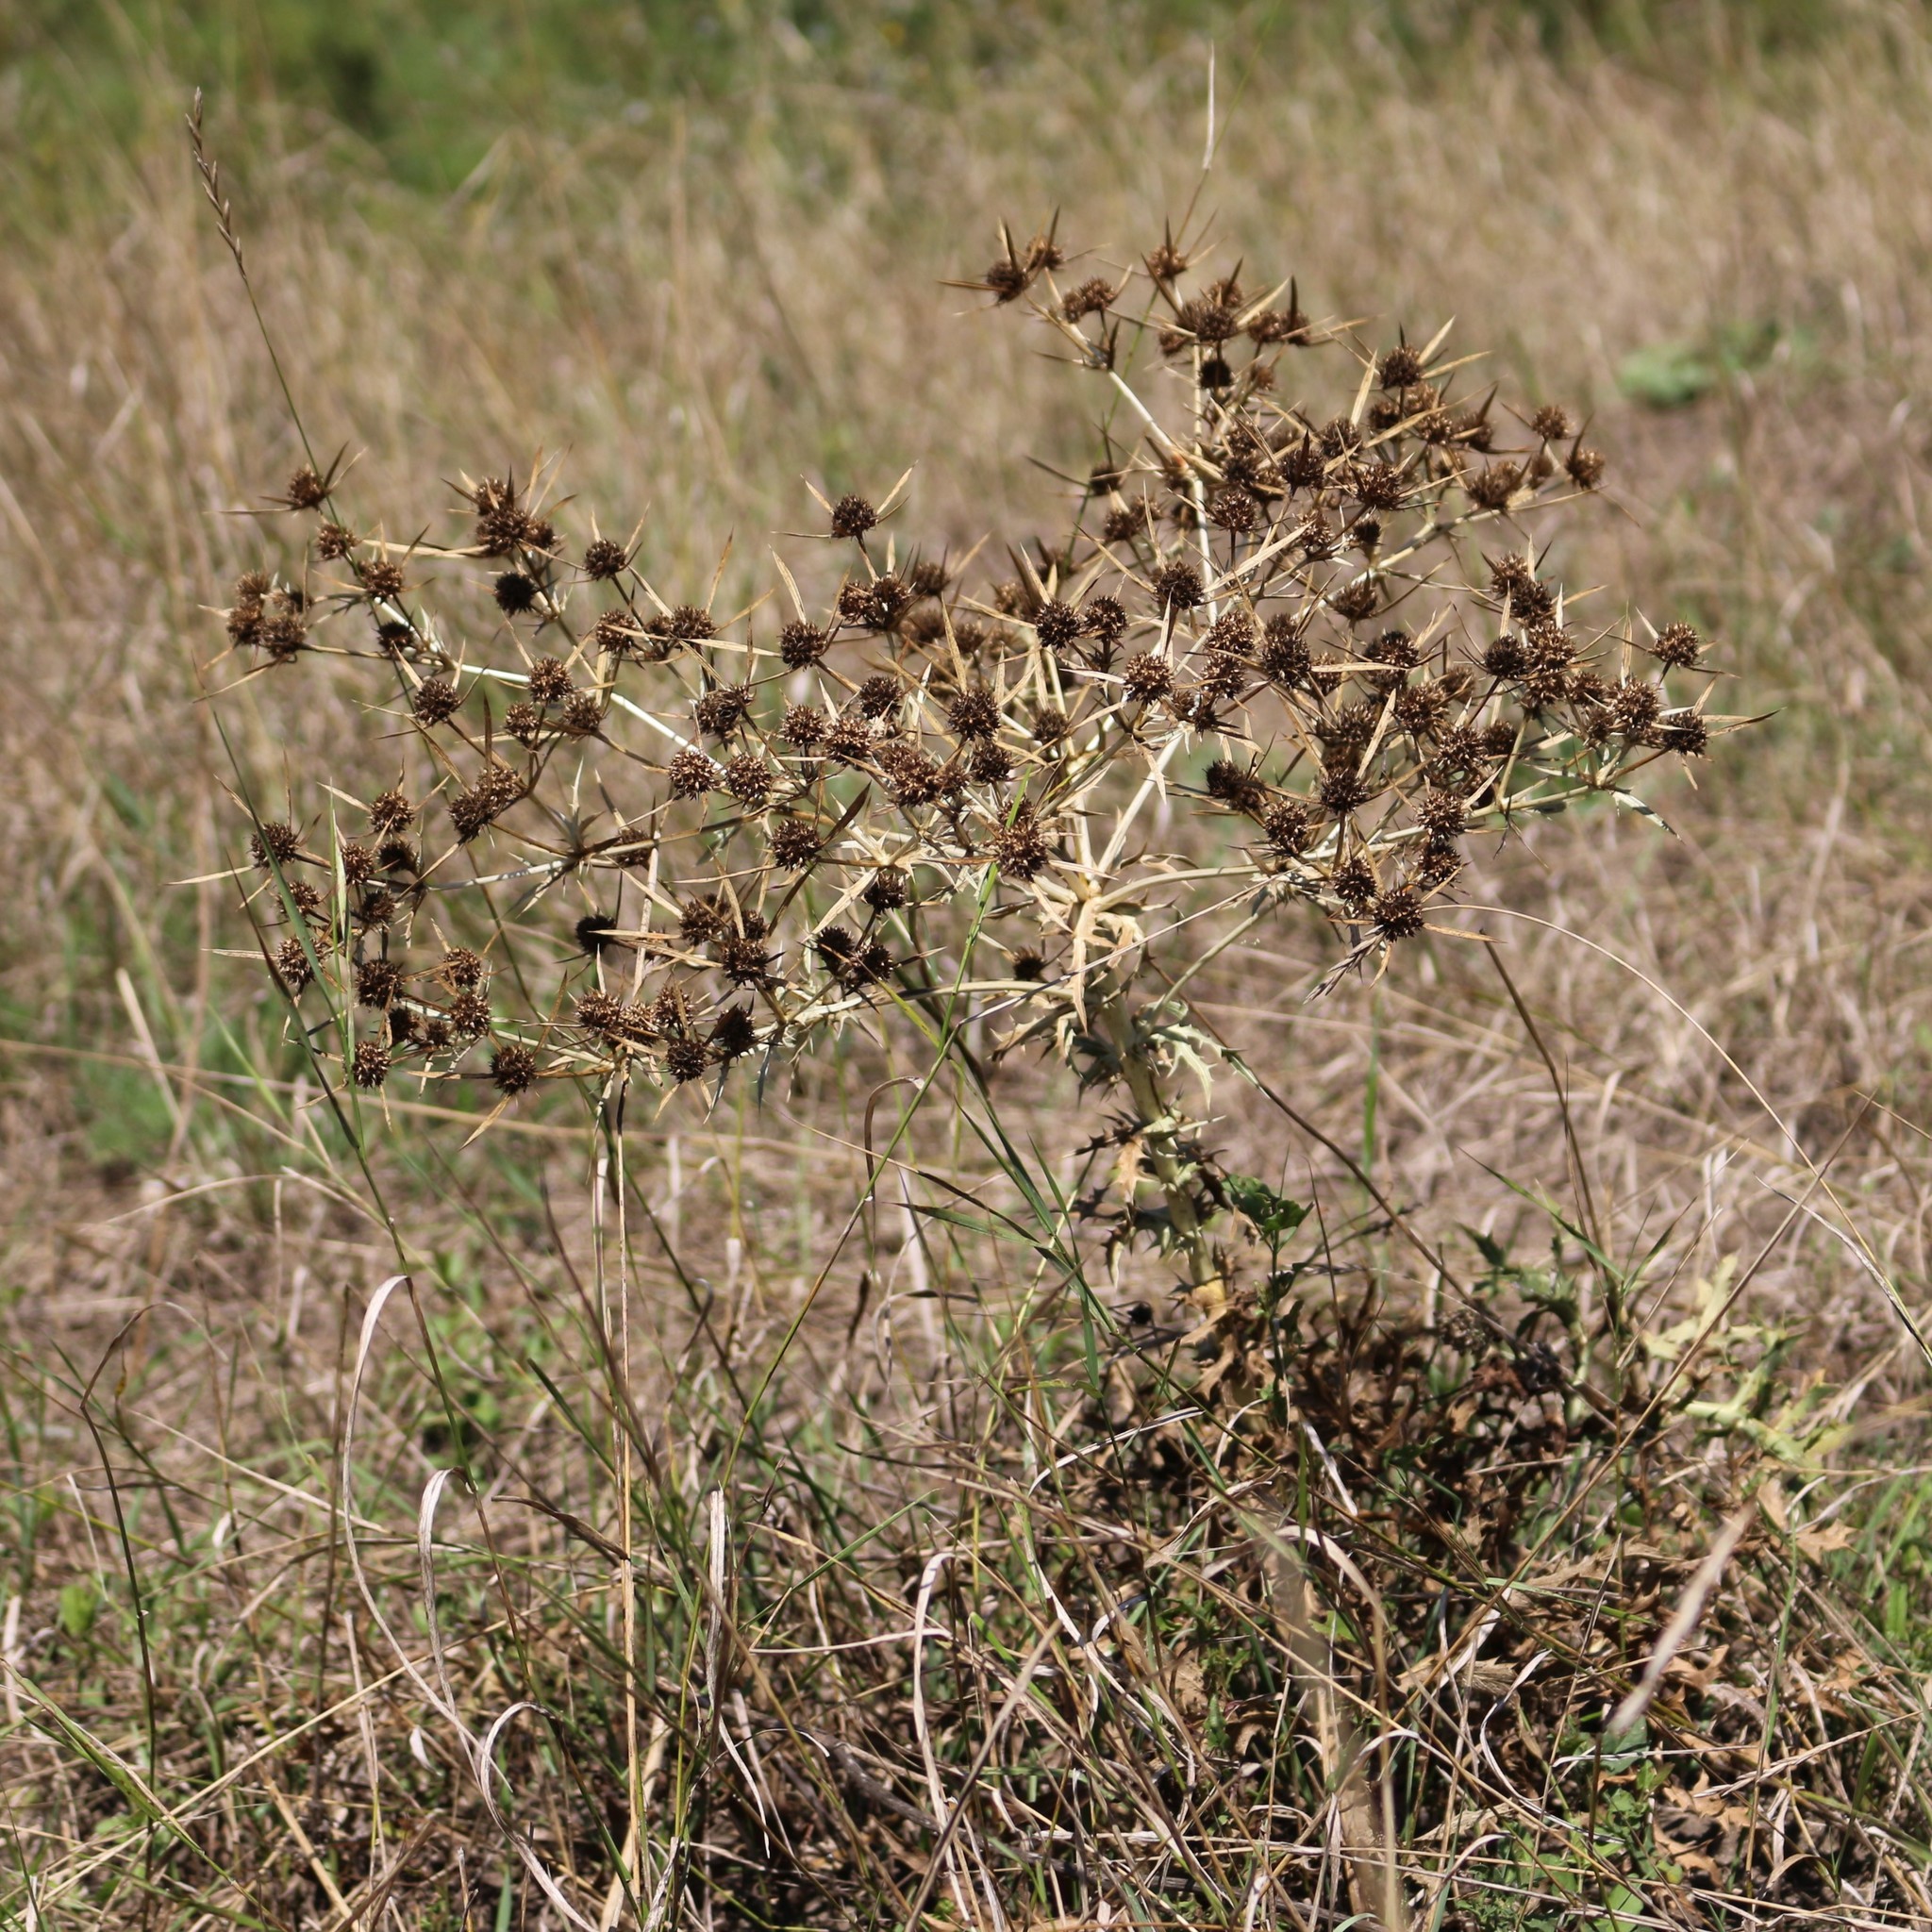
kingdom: Plantae
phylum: Tracheophyta
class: Magnoliopsida
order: Apiales
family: Apiaceae
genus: Eryngium
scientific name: Eryngium campestre
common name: Field eryngo
